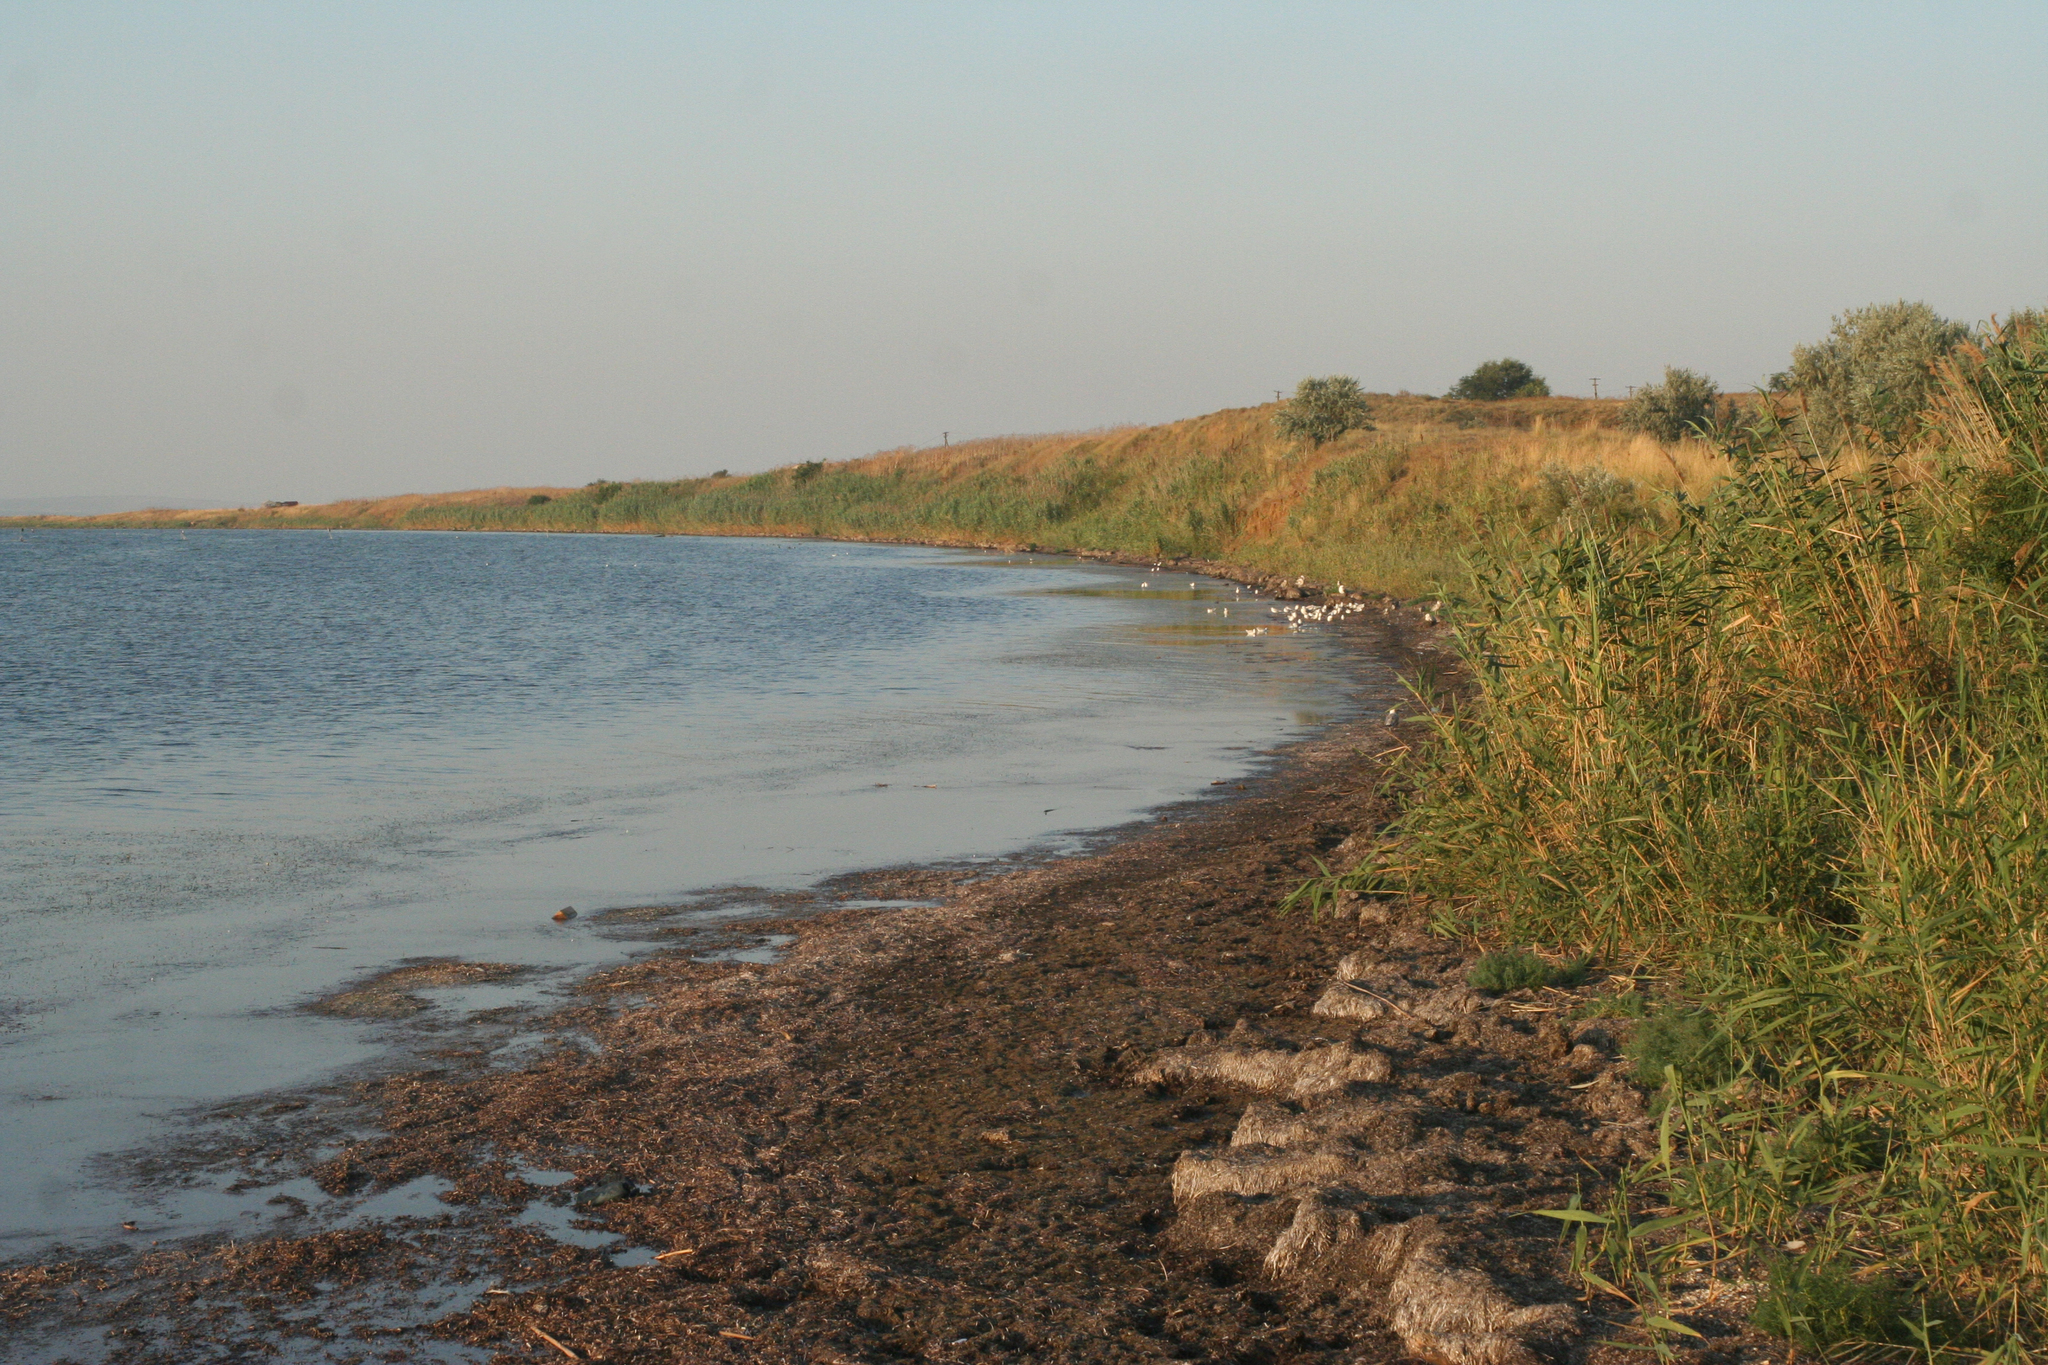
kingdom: Plantae
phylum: Tracheophyta
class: Liliopsida
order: Poales
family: Poaceae
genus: Phragmites
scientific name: Phragmites australis
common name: Common reed
